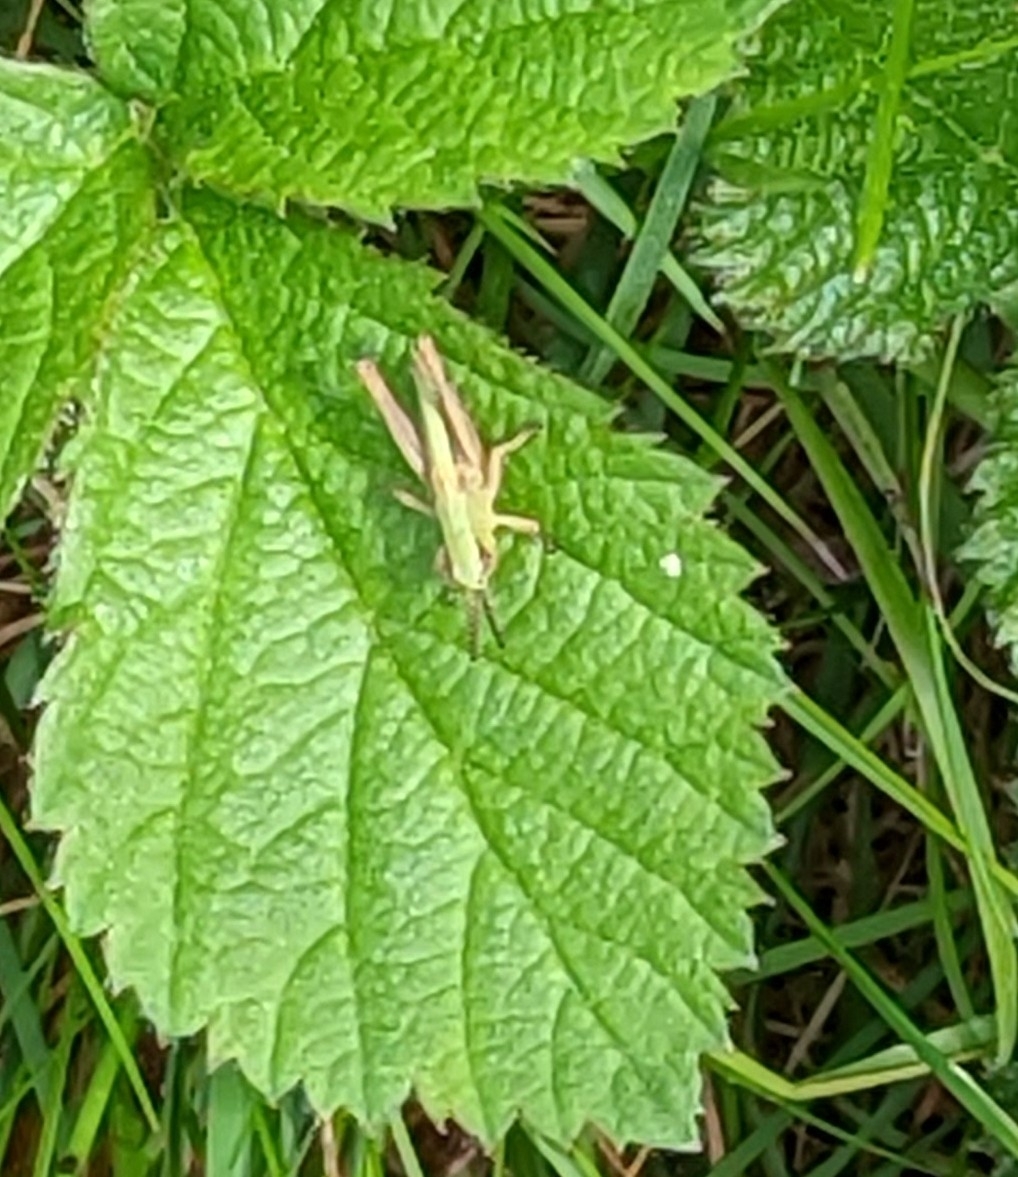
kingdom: Animalia
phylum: Arthropoda
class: Insecta
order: Orthoptera
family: Acrididae
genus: Pseudochorthippus
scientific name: Pseudochorthippus parallelus
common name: Meadow grasshopper
